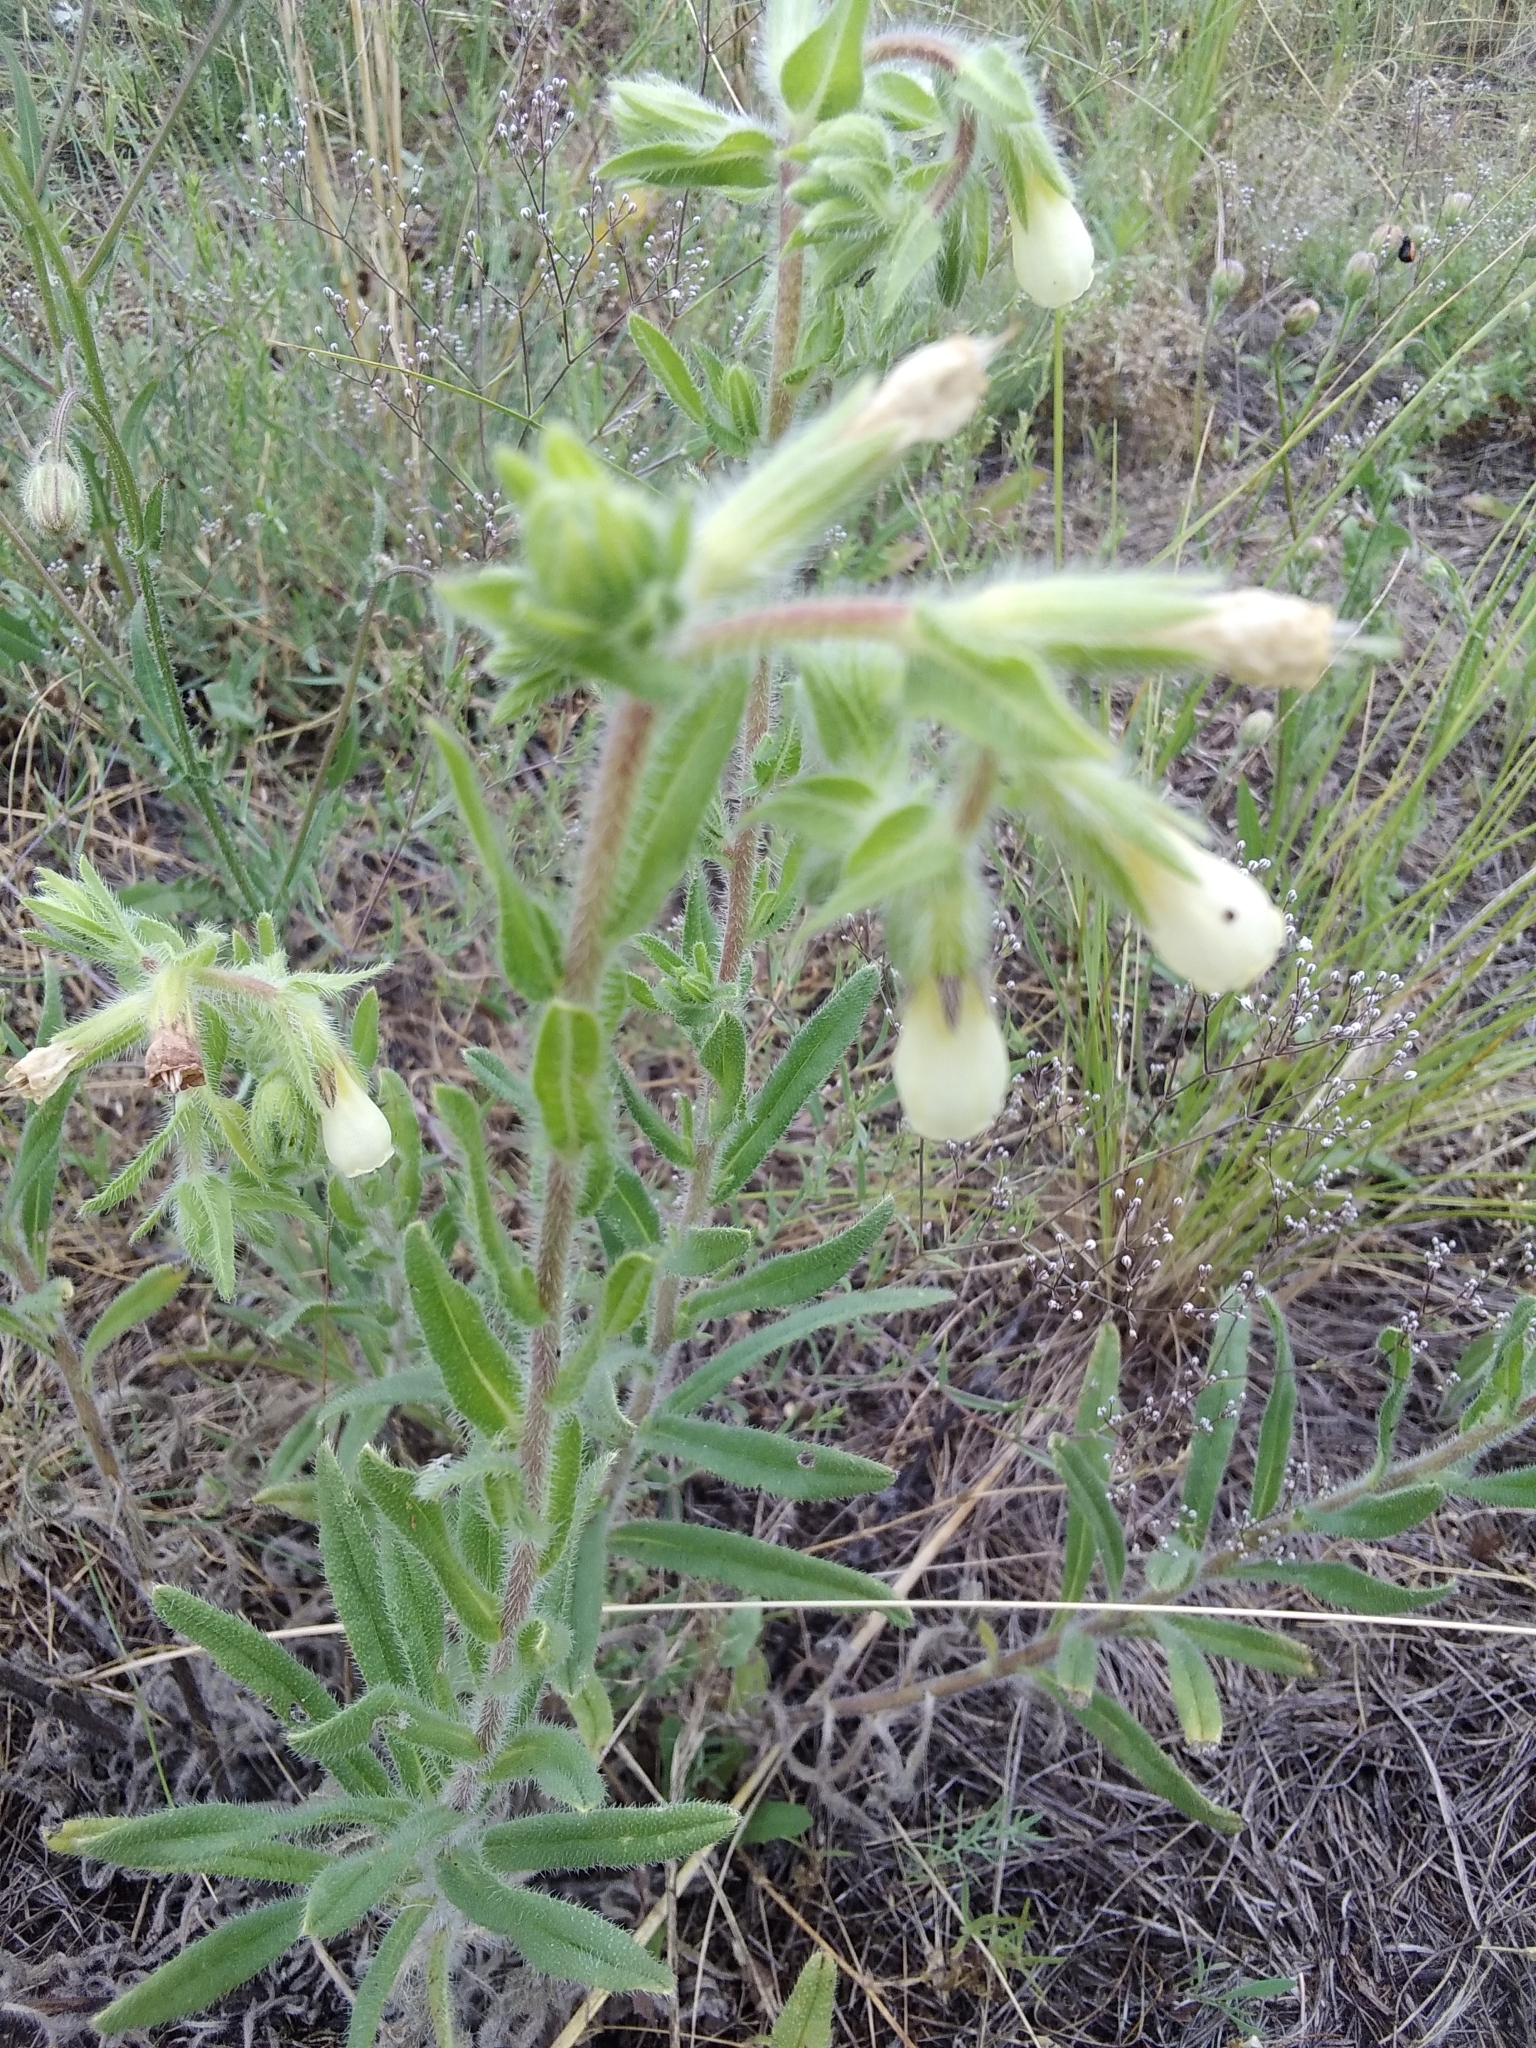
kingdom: Plantae
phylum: Tracheophyta
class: Magnoliopsida
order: Boraginales
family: Boraginaceae
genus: Onosma
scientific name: Onosma arenaria
